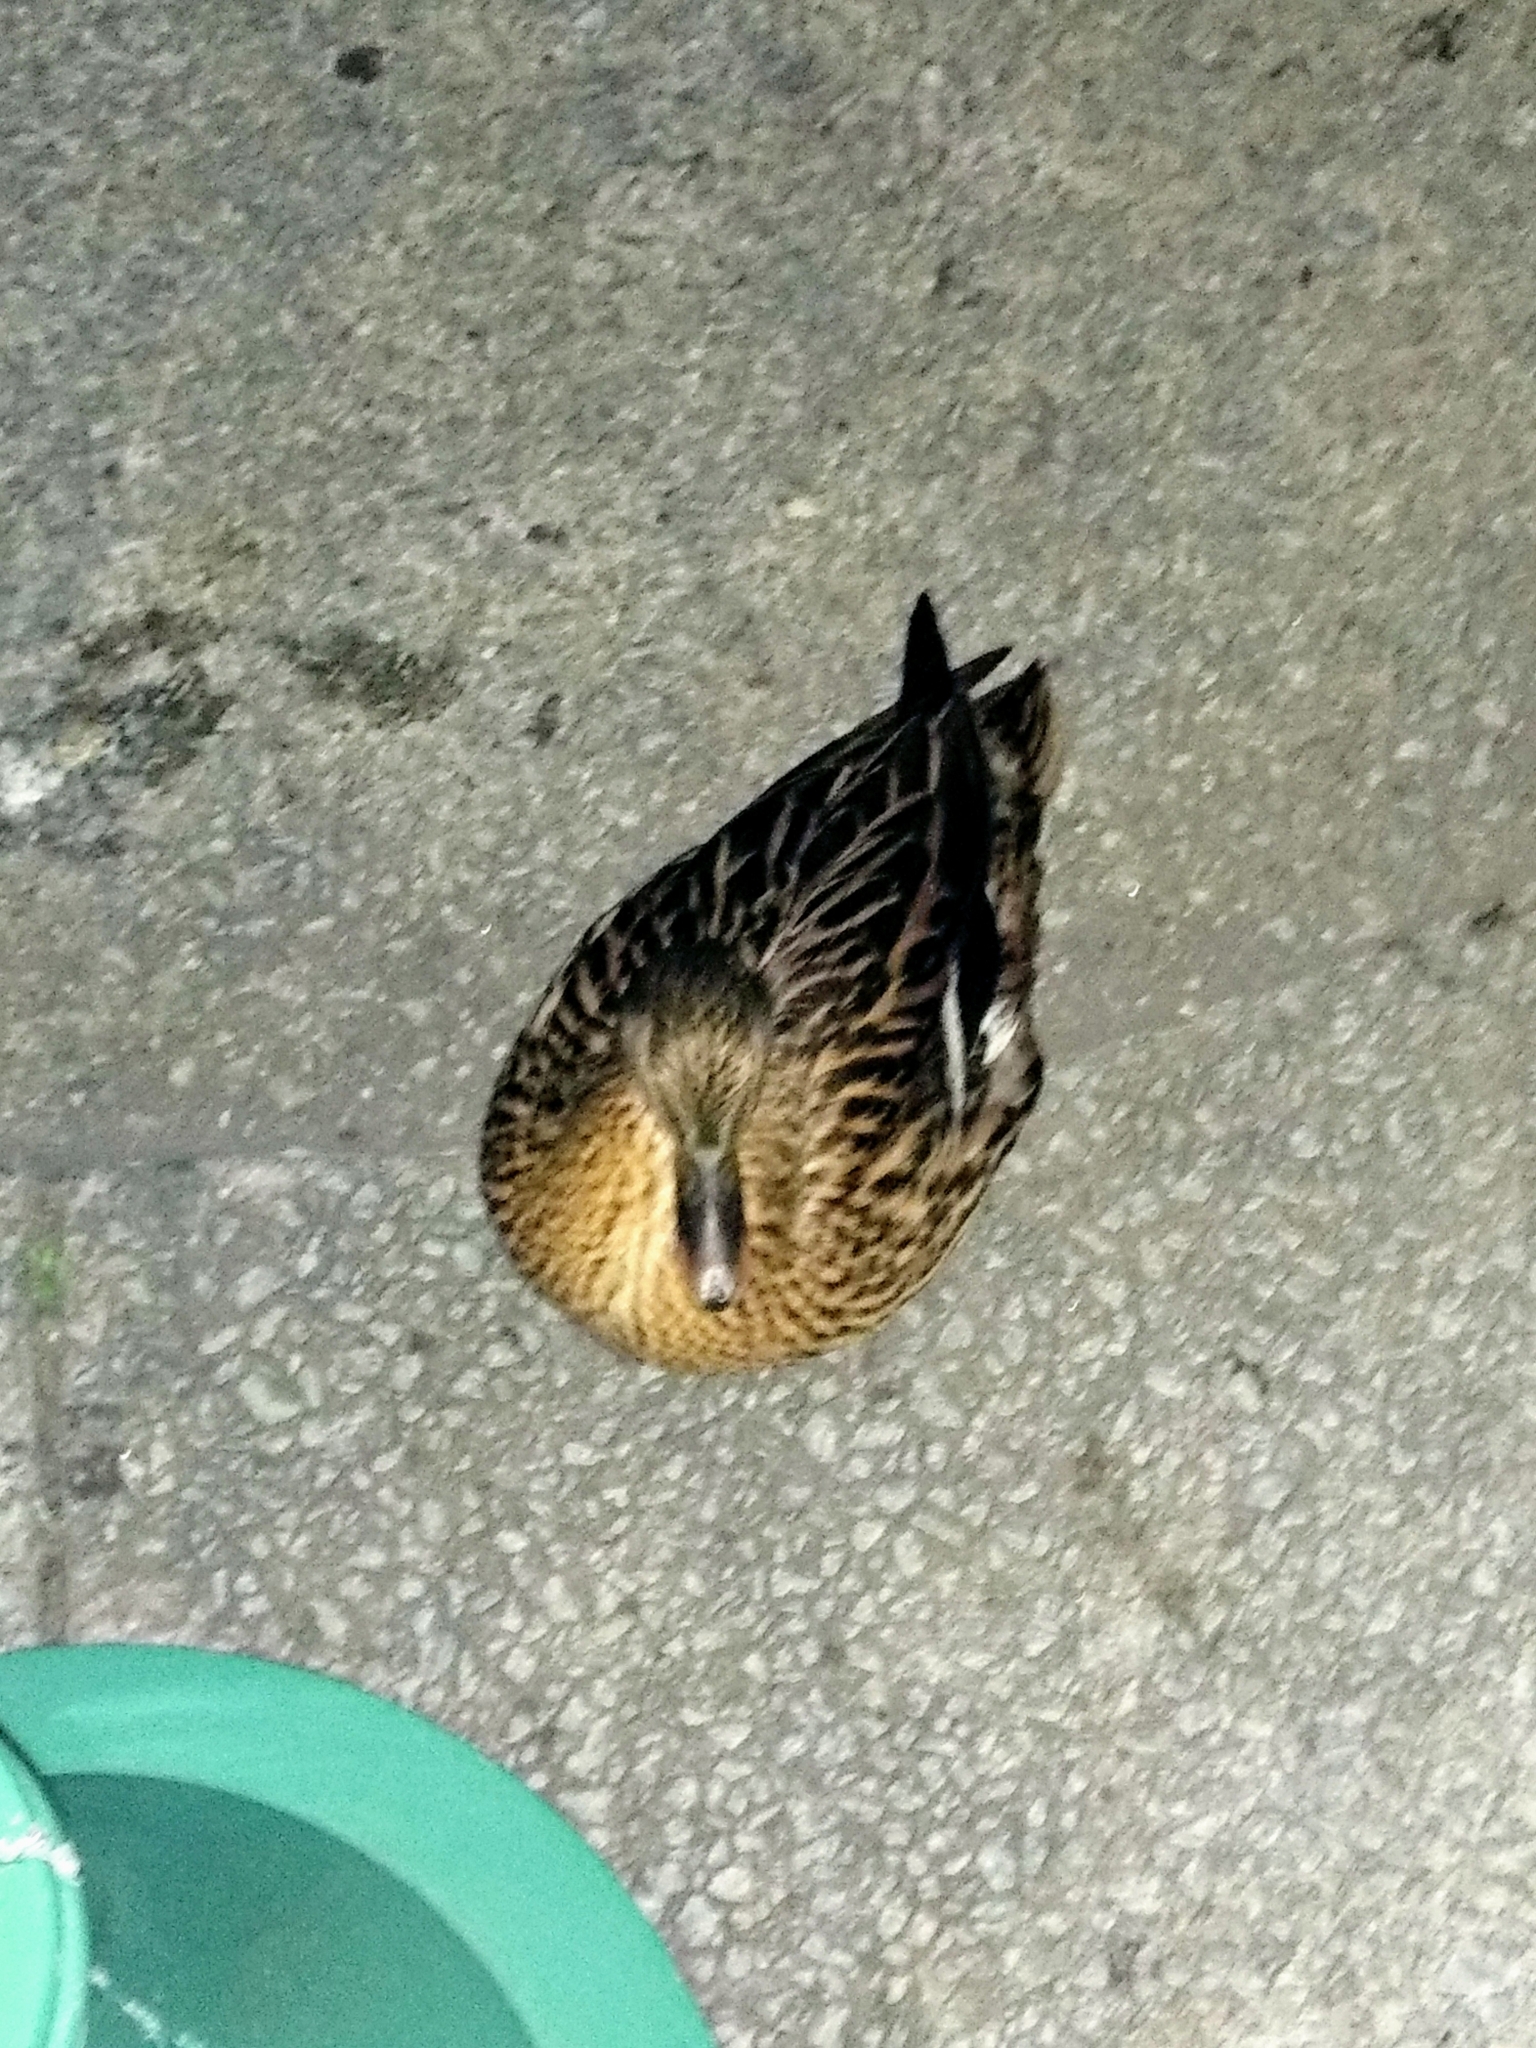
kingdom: Animalia
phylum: Chordata
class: Aves
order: Anseriformes
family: Anatidae
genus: Anas
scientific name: Anas platyrhynchos
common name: Mallard
